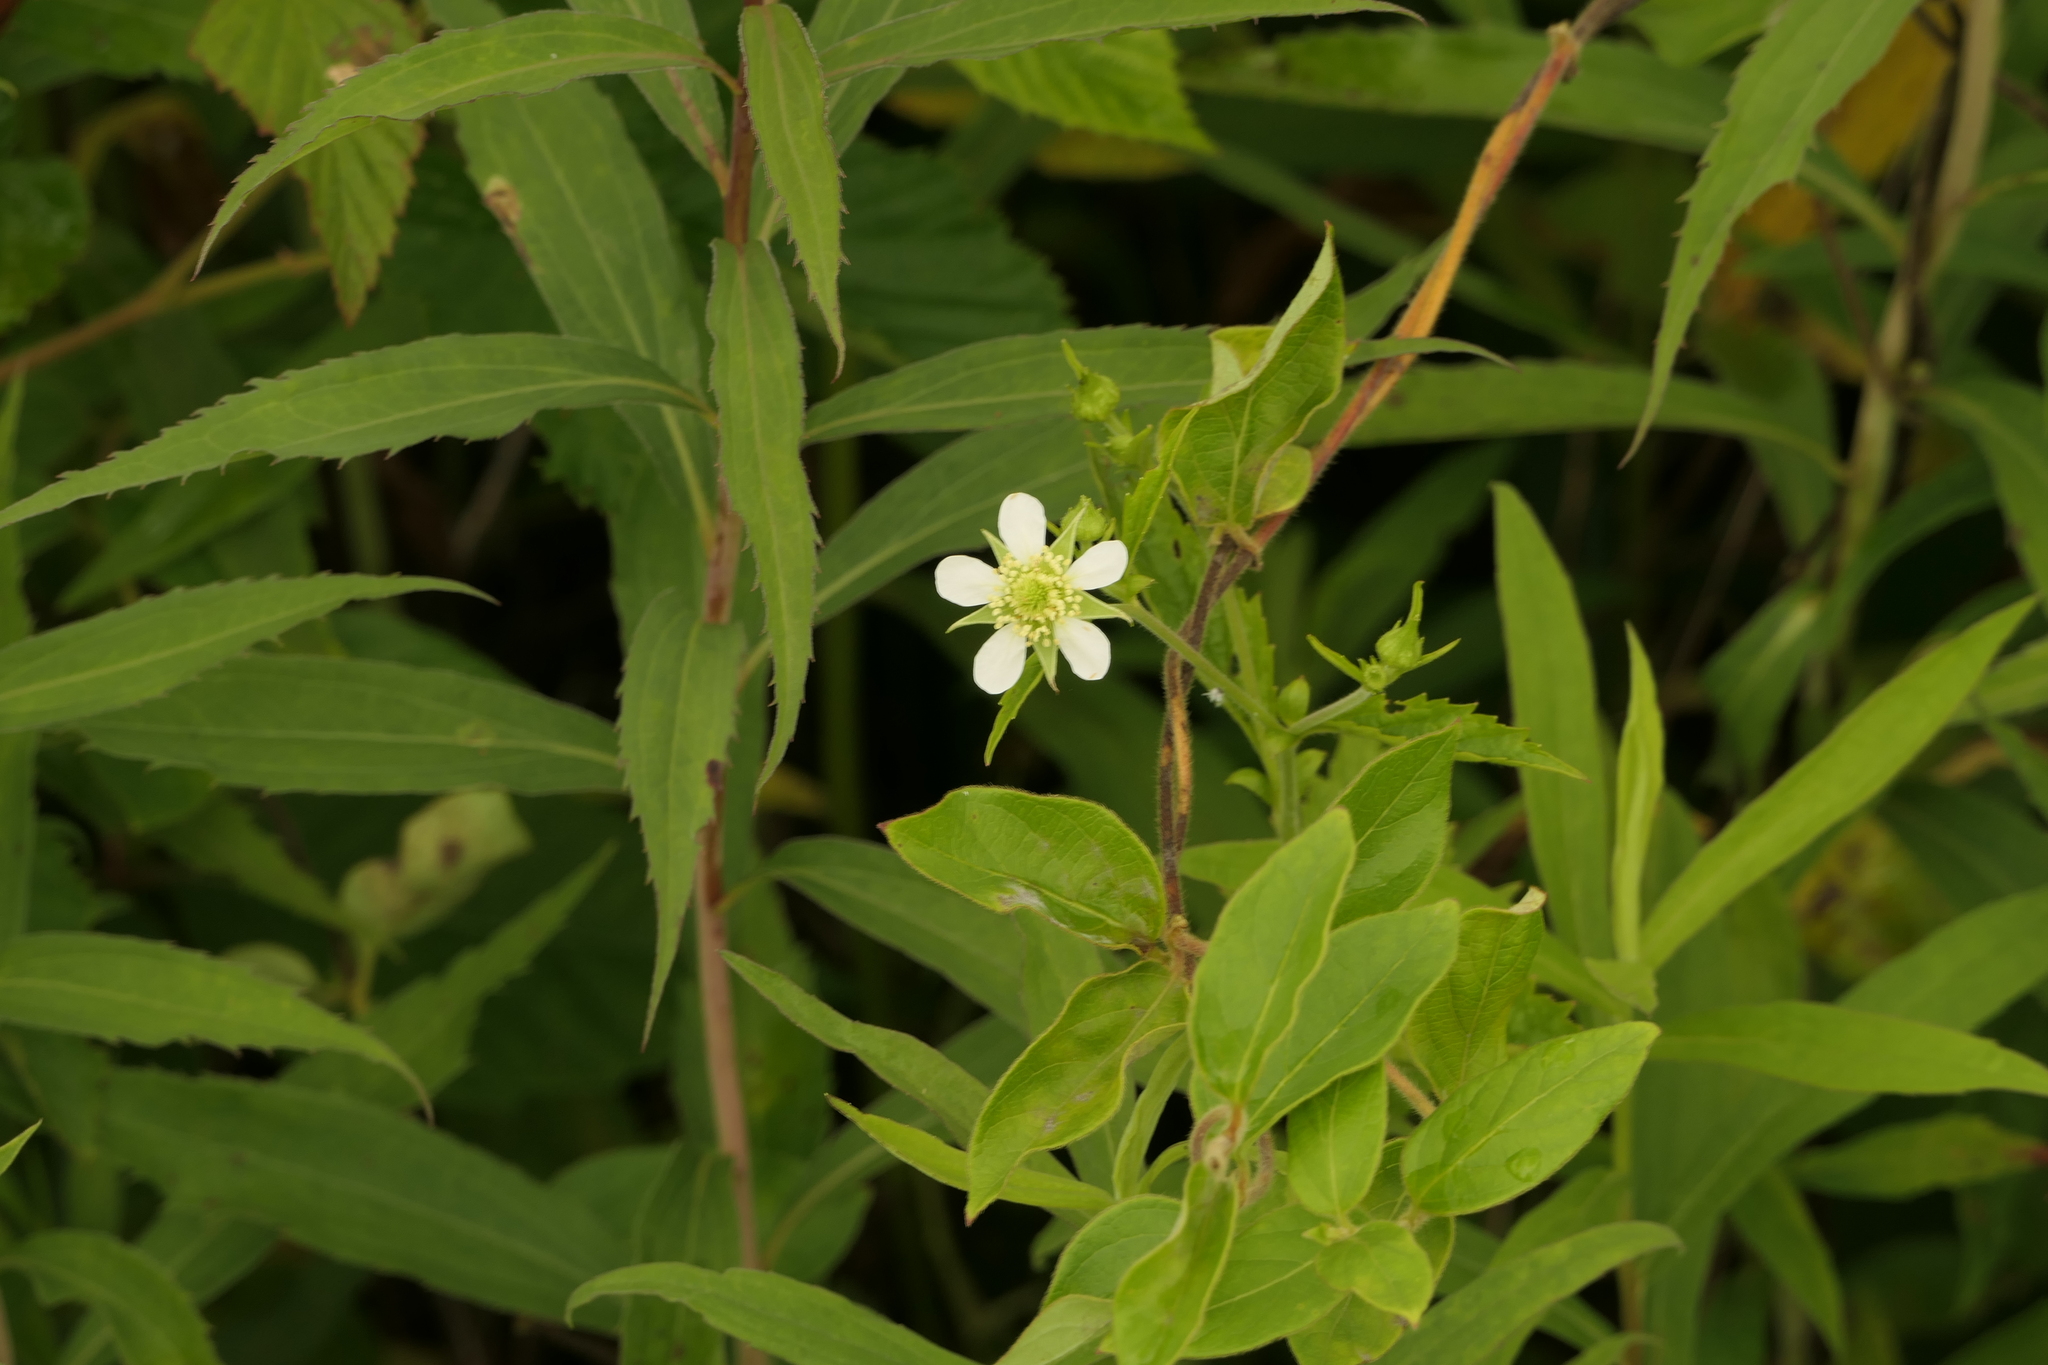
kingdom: Plantae
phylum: Tracheophyta
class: Magnoliopsida
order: Rosales
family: Rosaceae
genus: Geum
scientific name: Geum canadense
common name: White avens
